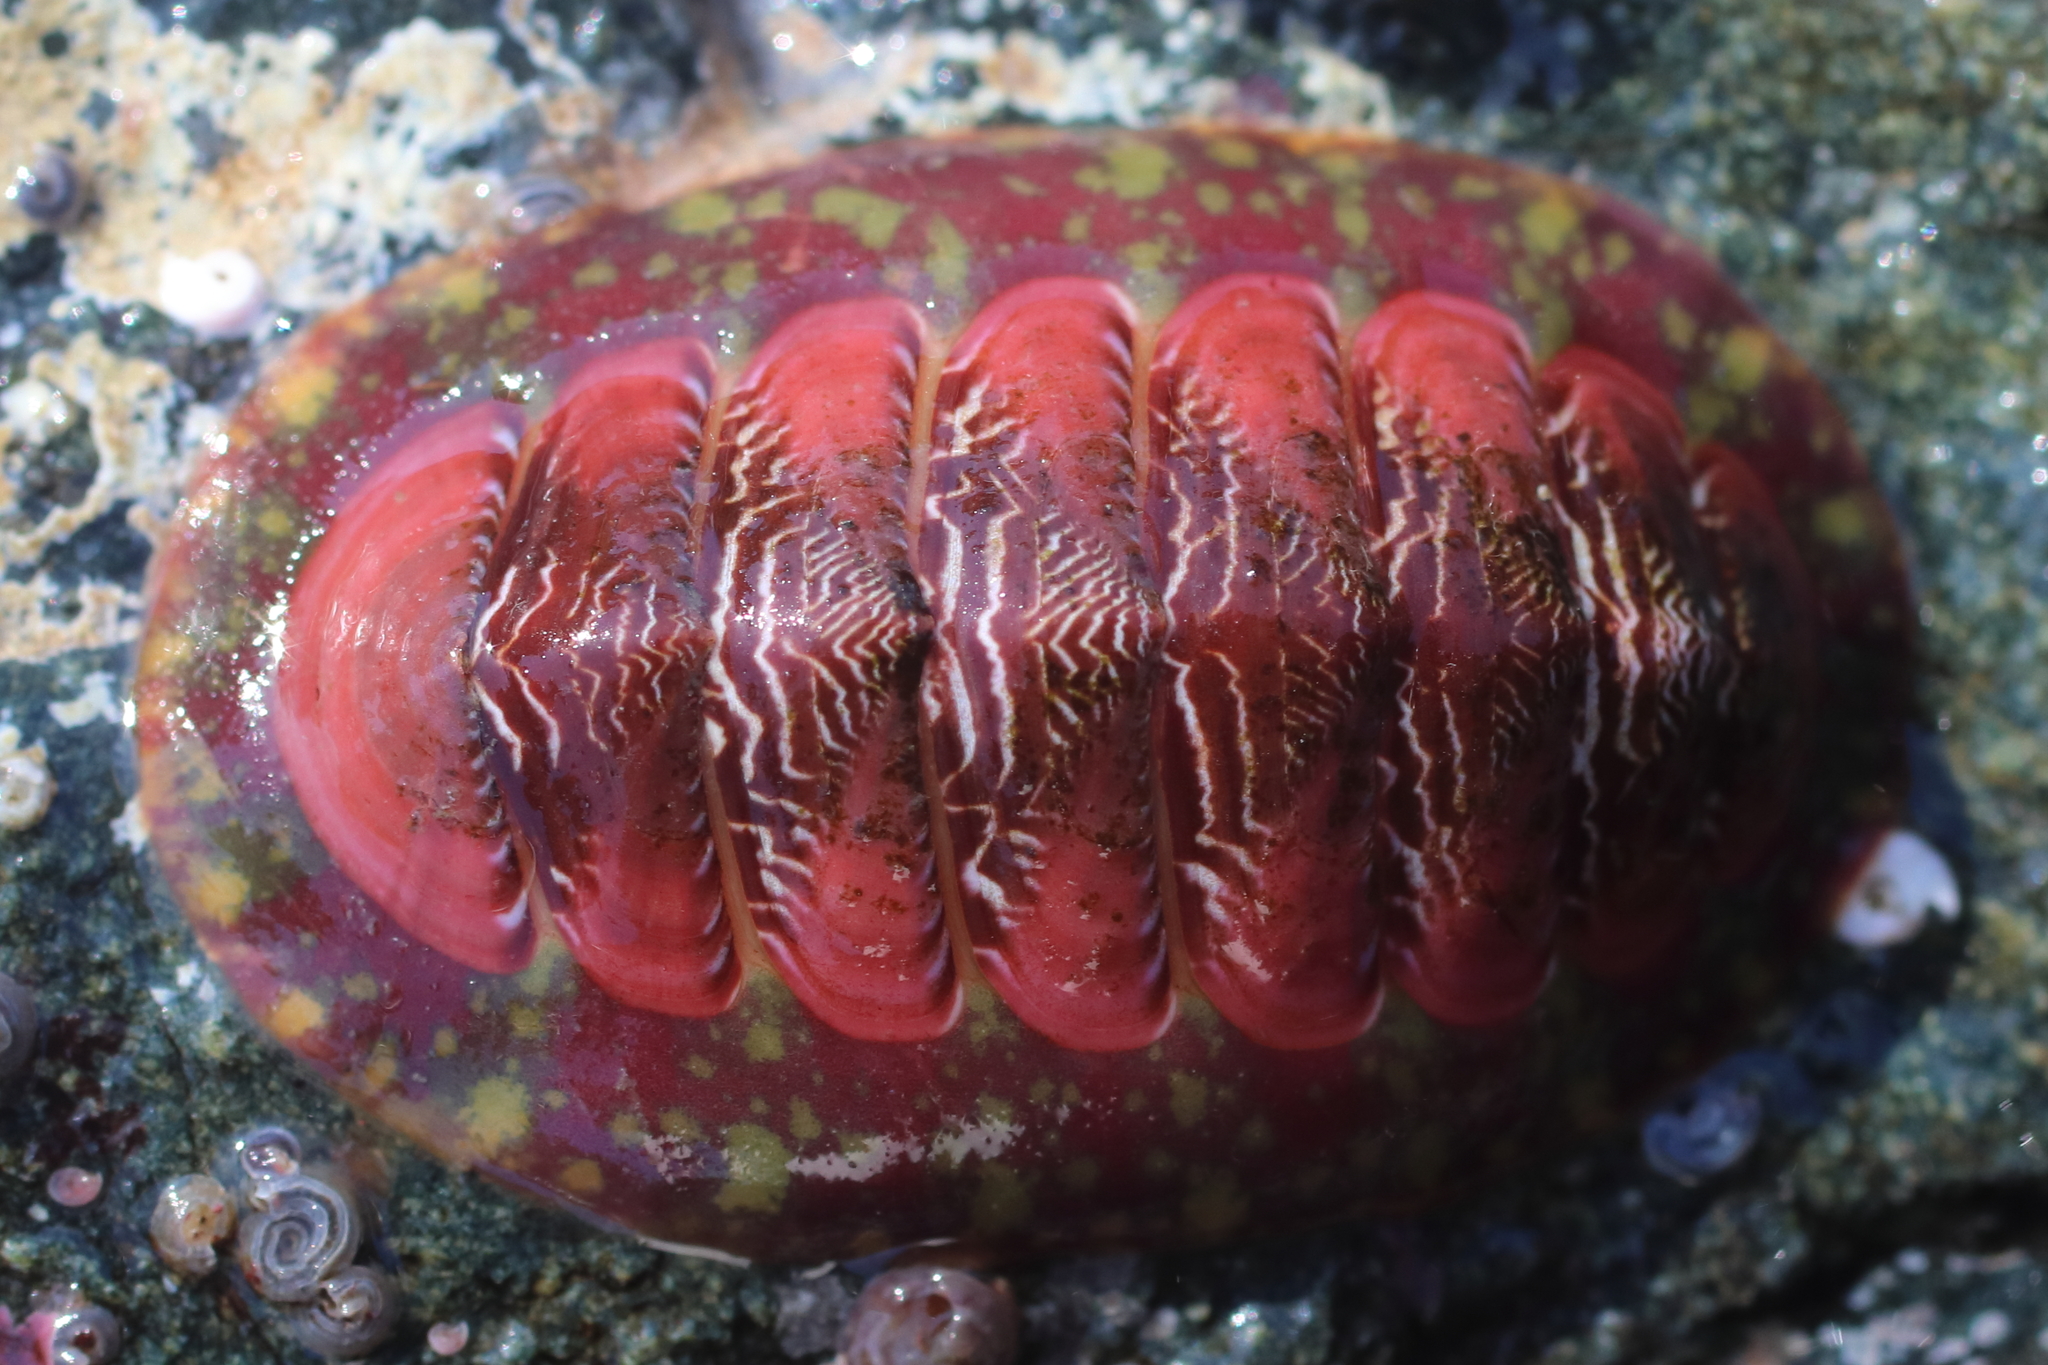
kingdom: Animalia
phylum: Mollusca
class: Polyplacophora
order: Chitonida
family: Tonicellidae
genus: Tonicella
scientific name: Tonicella insignis
